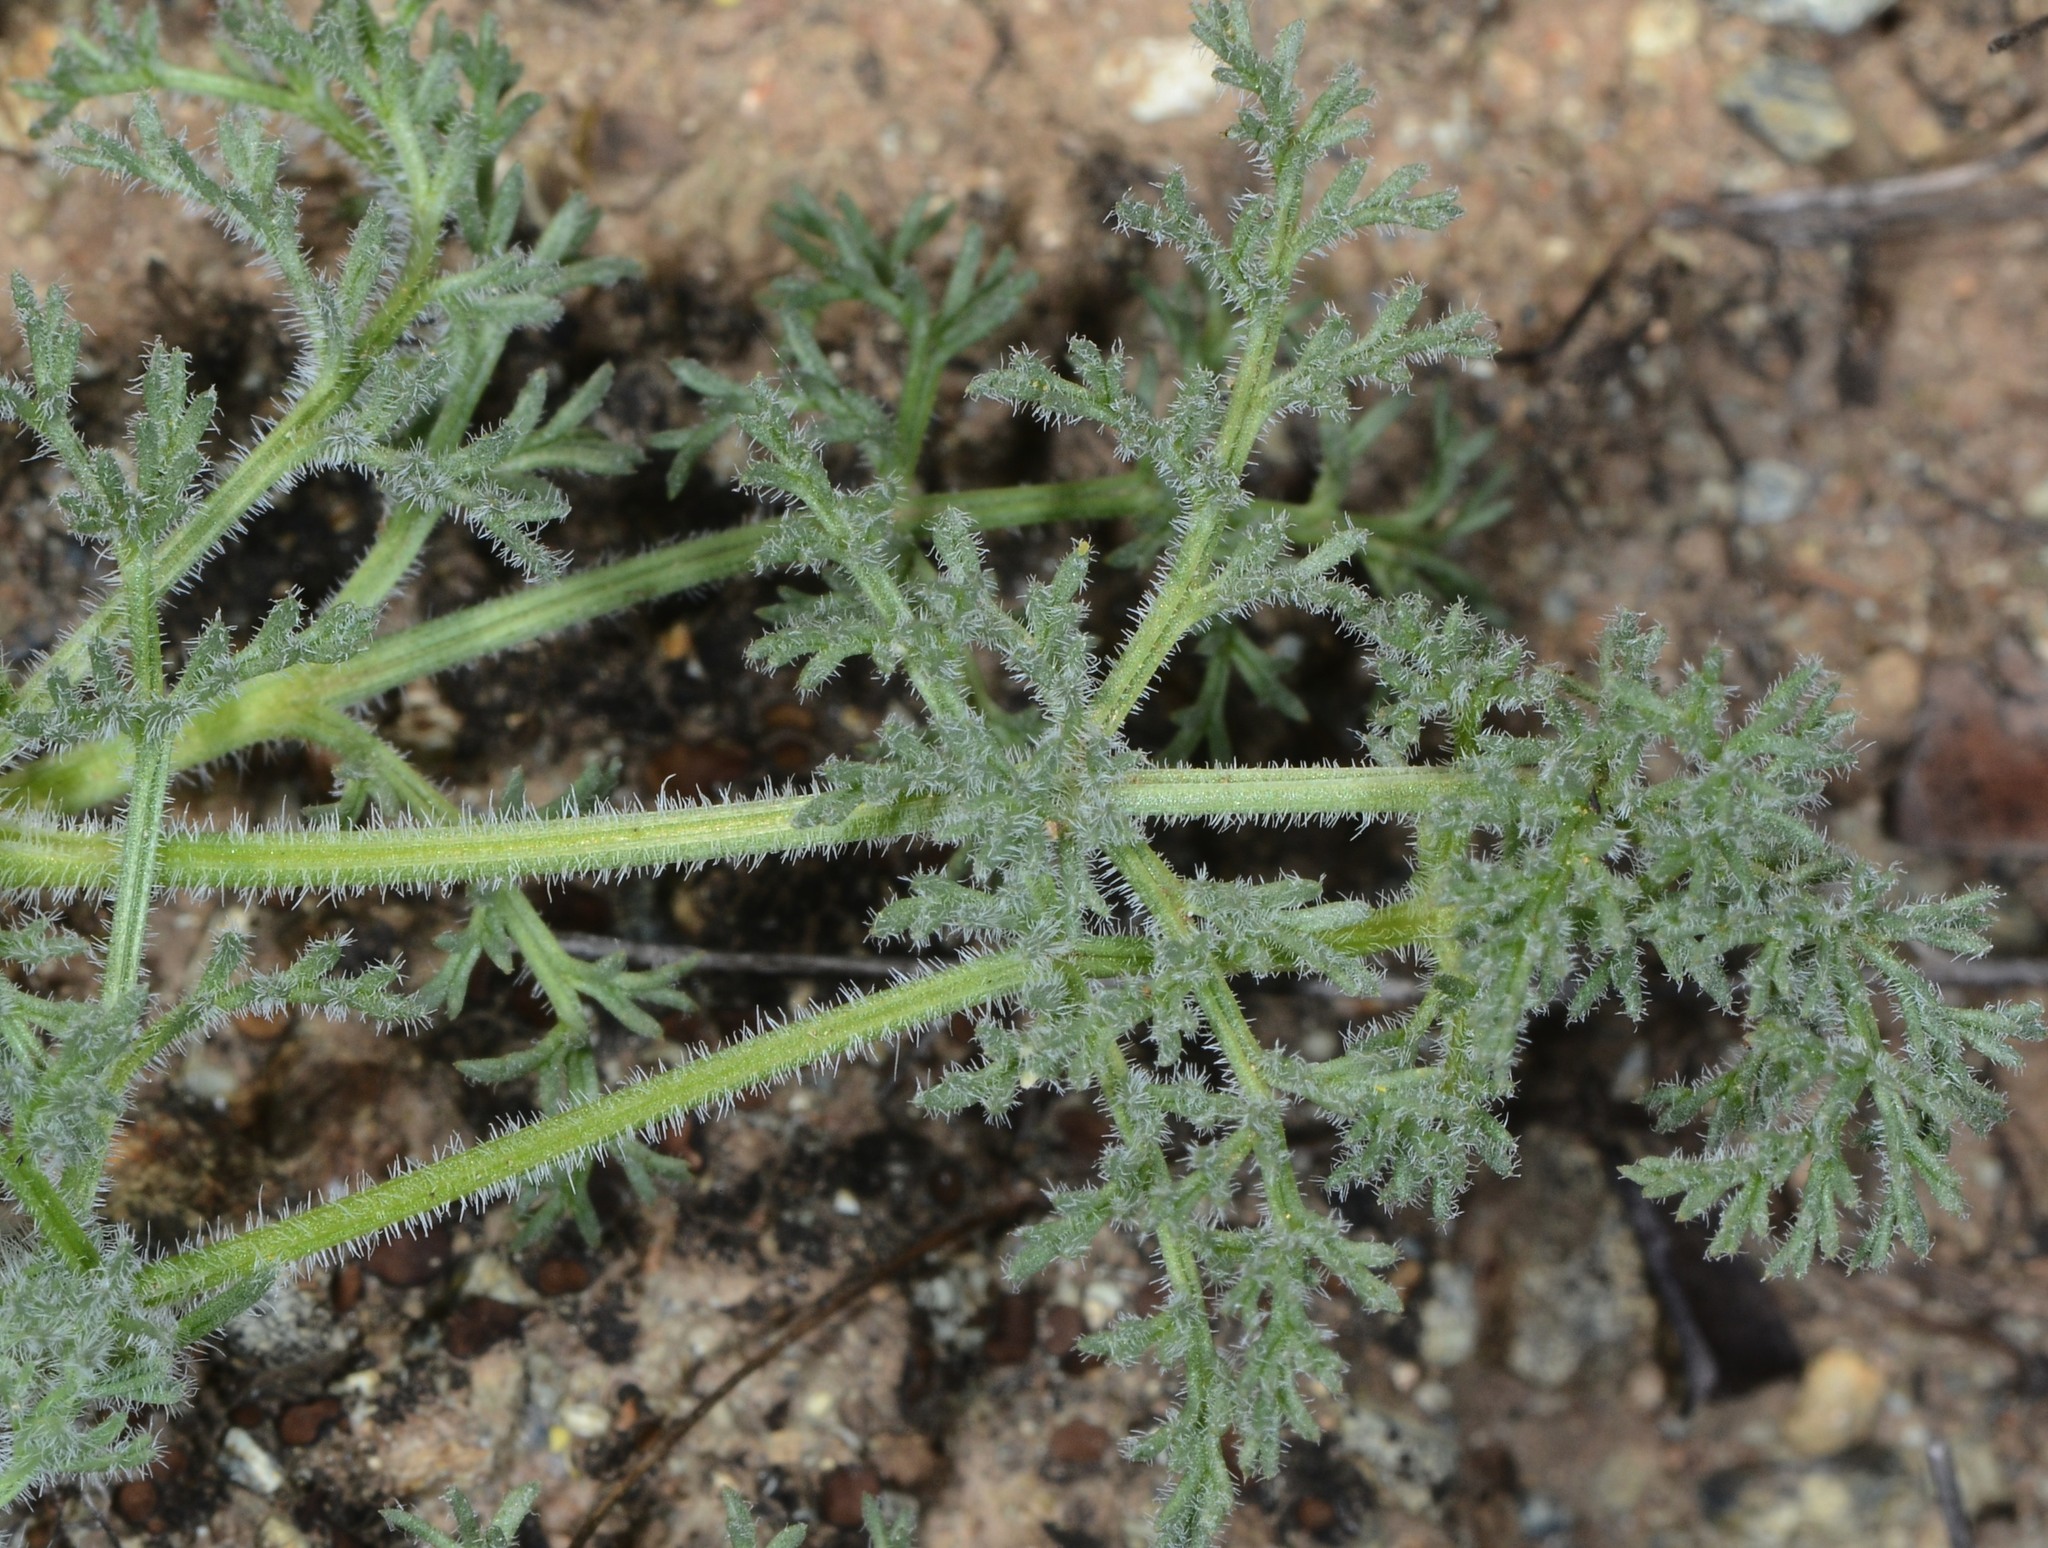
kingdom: Plantae
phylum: Tracheophyta
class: Magnoliopsida
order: Apiales
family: Apiaceae
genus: Lomatium
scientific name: Lomatium dasycarpum
